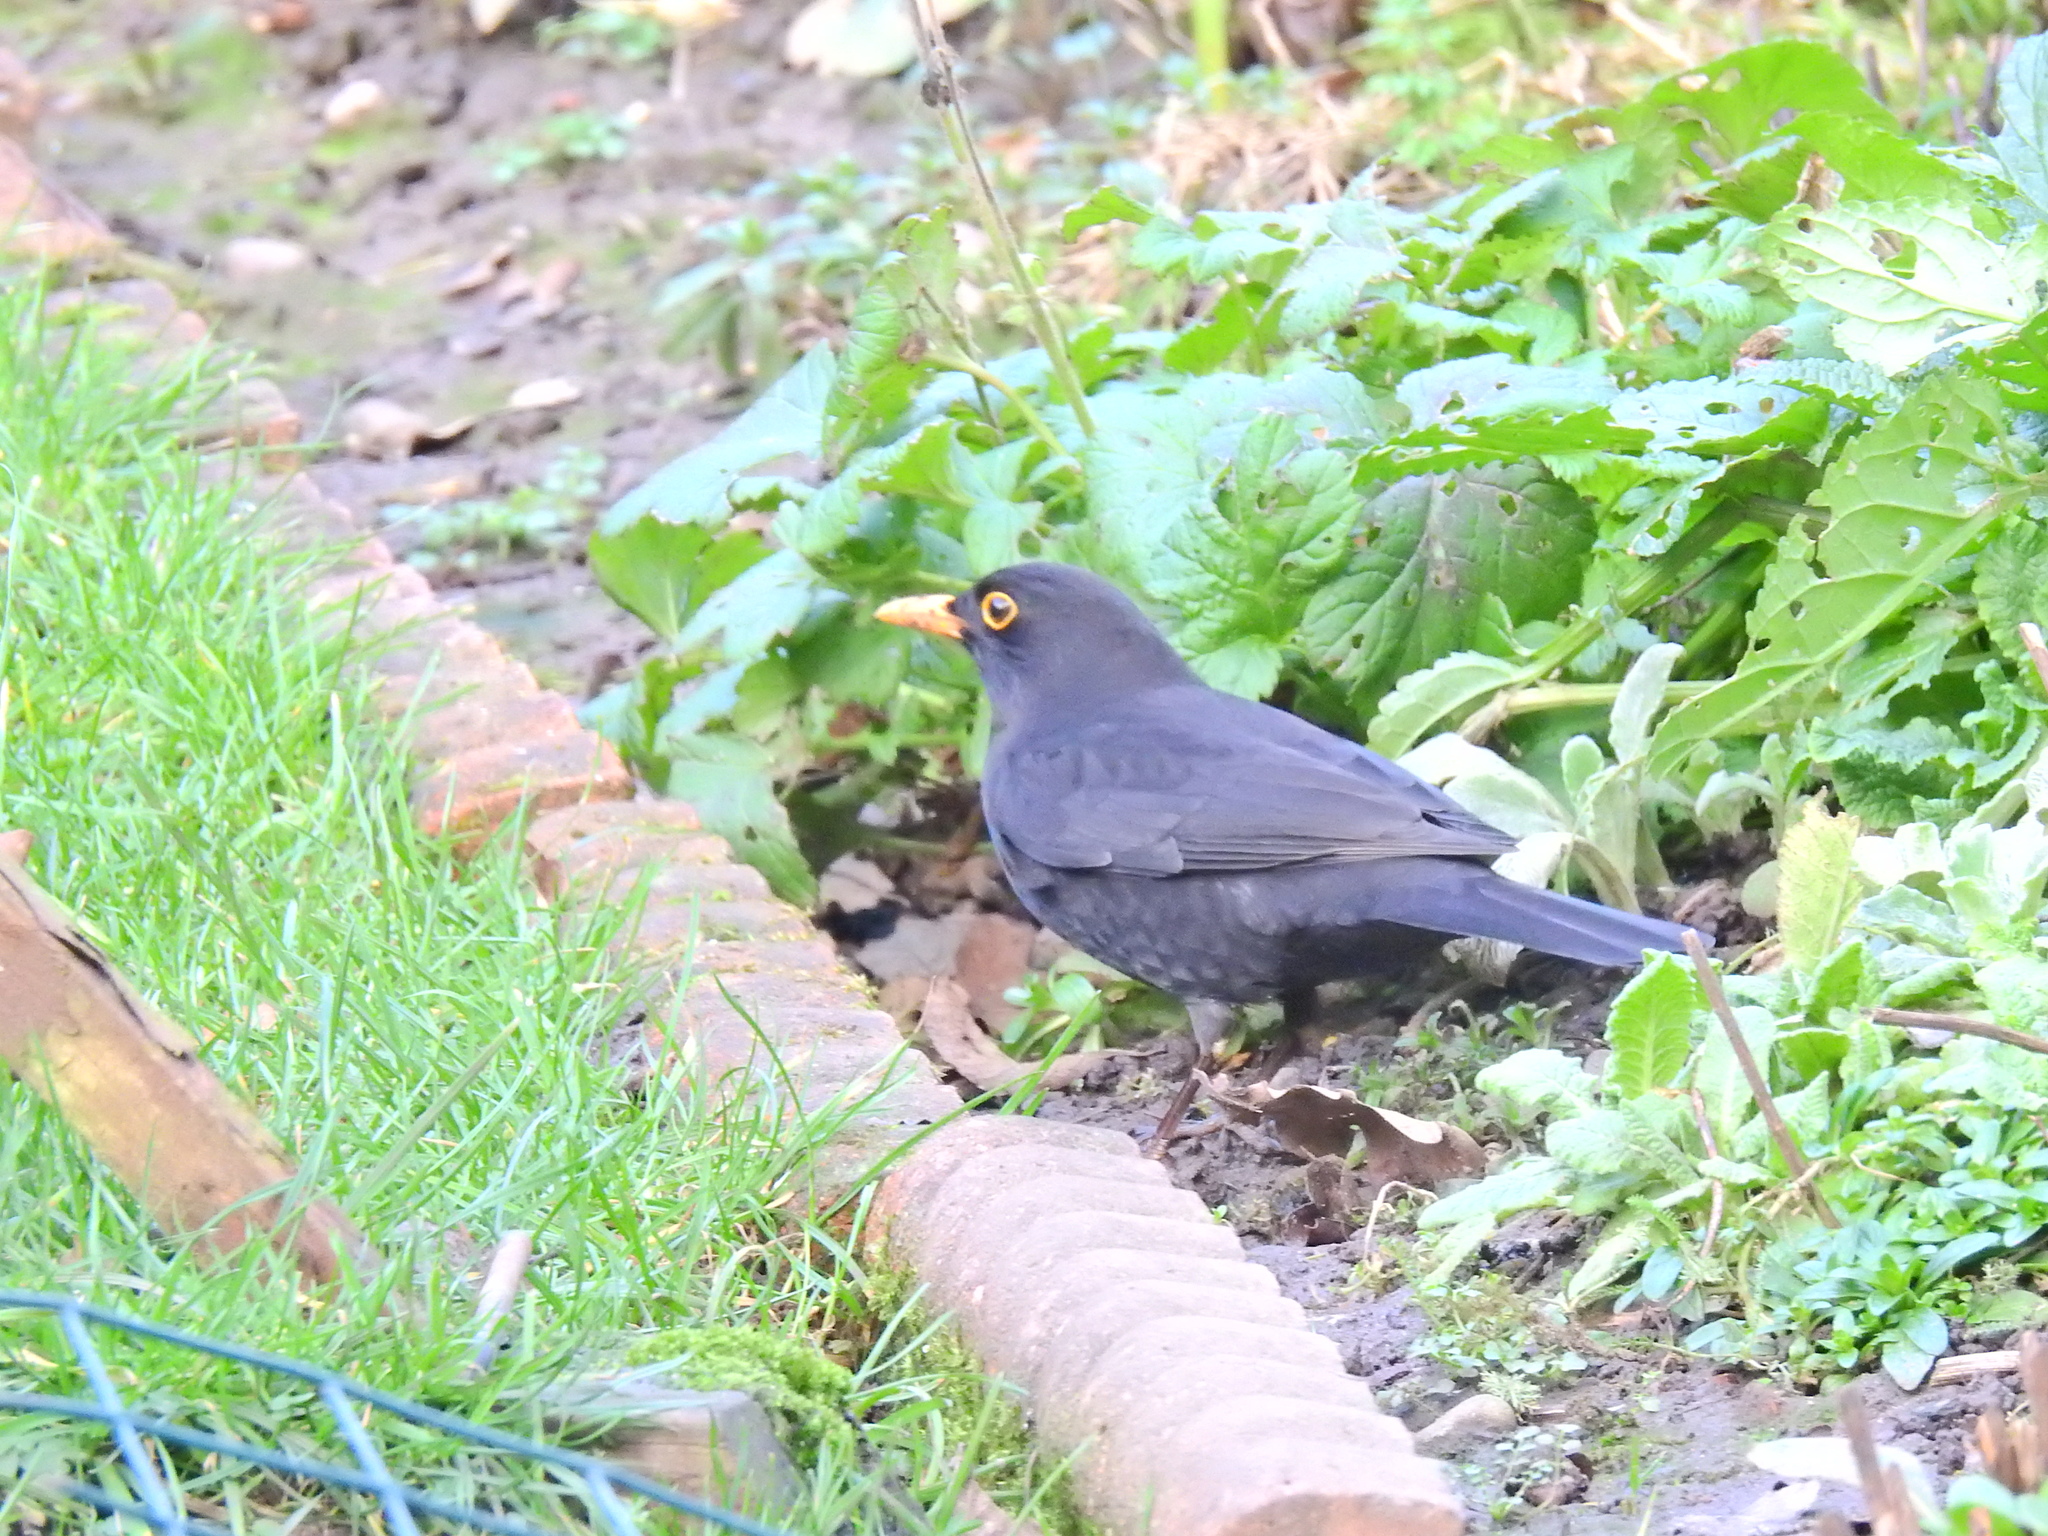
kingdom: Animalia
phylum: Chordata
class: Aves
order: Passeriformes
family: Turdidae
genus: Turdus
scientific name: Turdus merula
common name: Common blackbird
